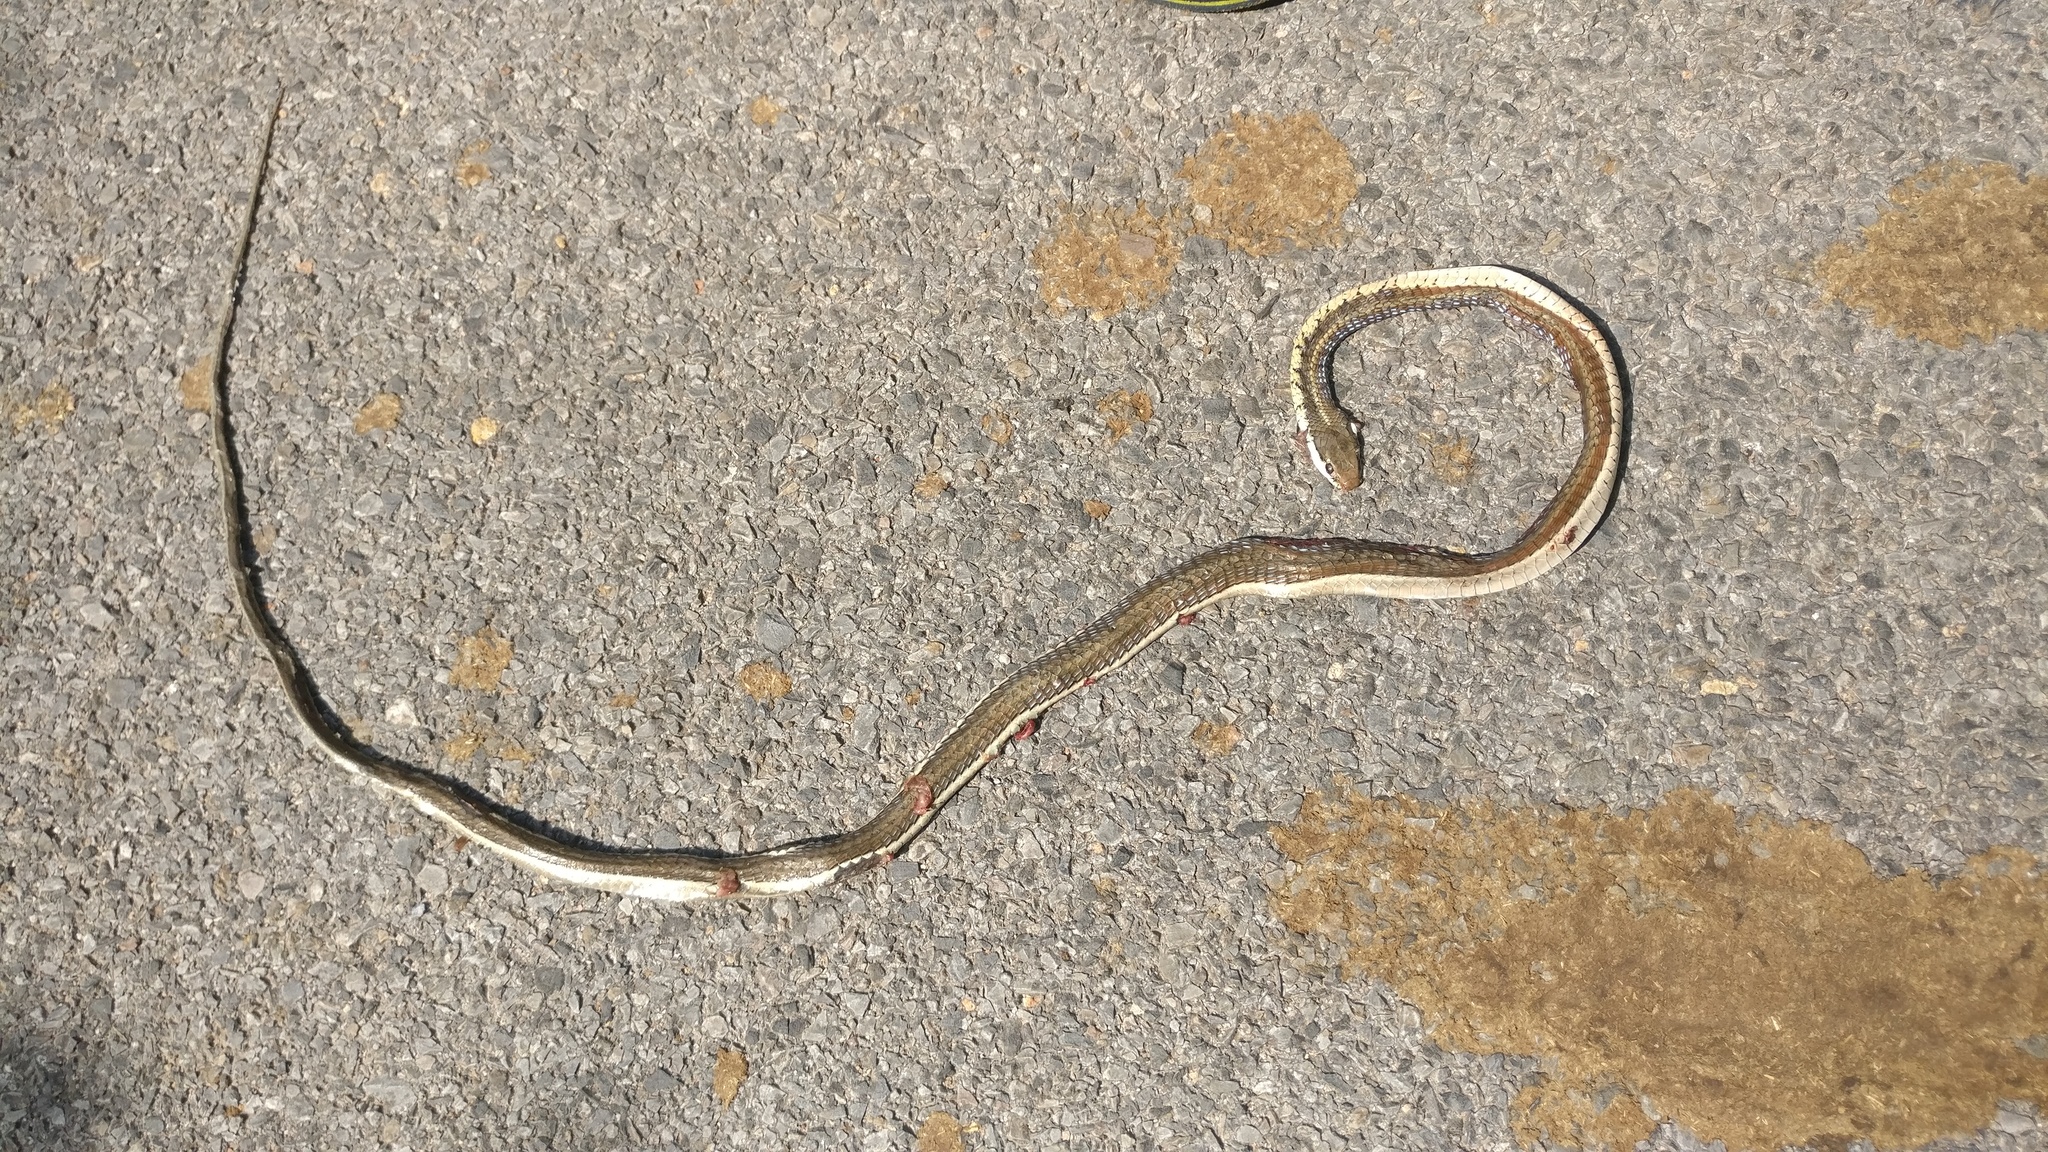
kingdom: Animalia
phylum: Chordata
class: Squamata
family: Colubridae
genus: Dendrelaphis
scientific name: Dendrelaphis tristis
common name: Daudin's bronzeback
